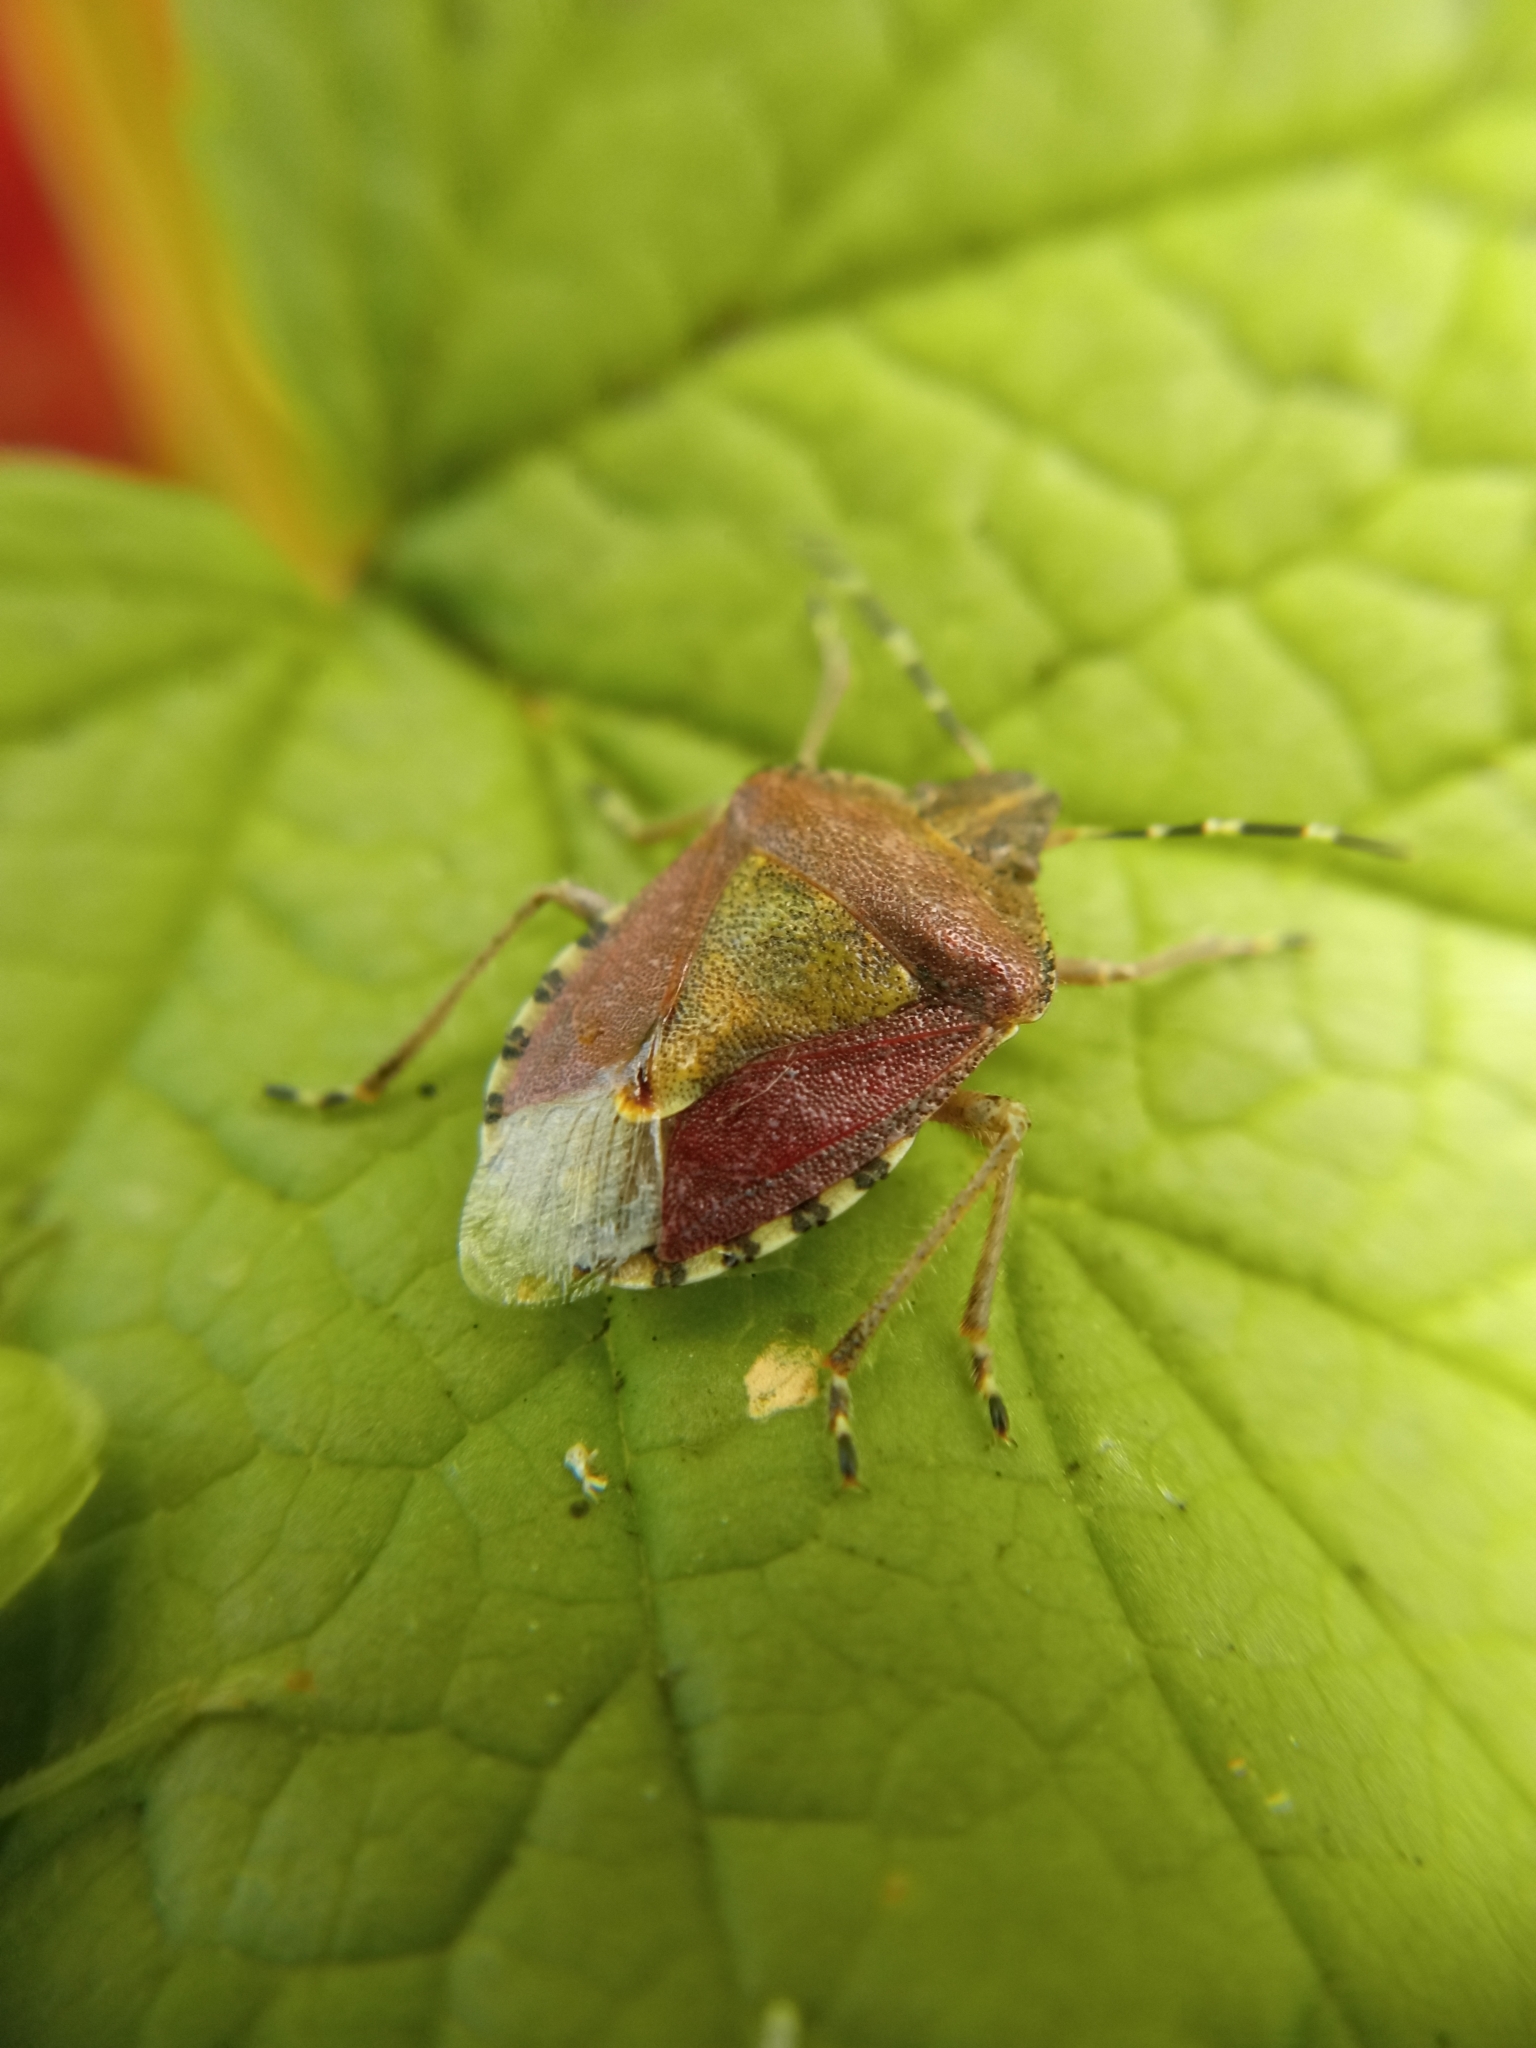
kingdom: Animalia
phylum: Arthropoda
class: Insecta
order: Hemiptera
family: Pentatomidae
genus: Dolycoris
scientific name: Dolycoris baccarum
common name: Sloe bug
